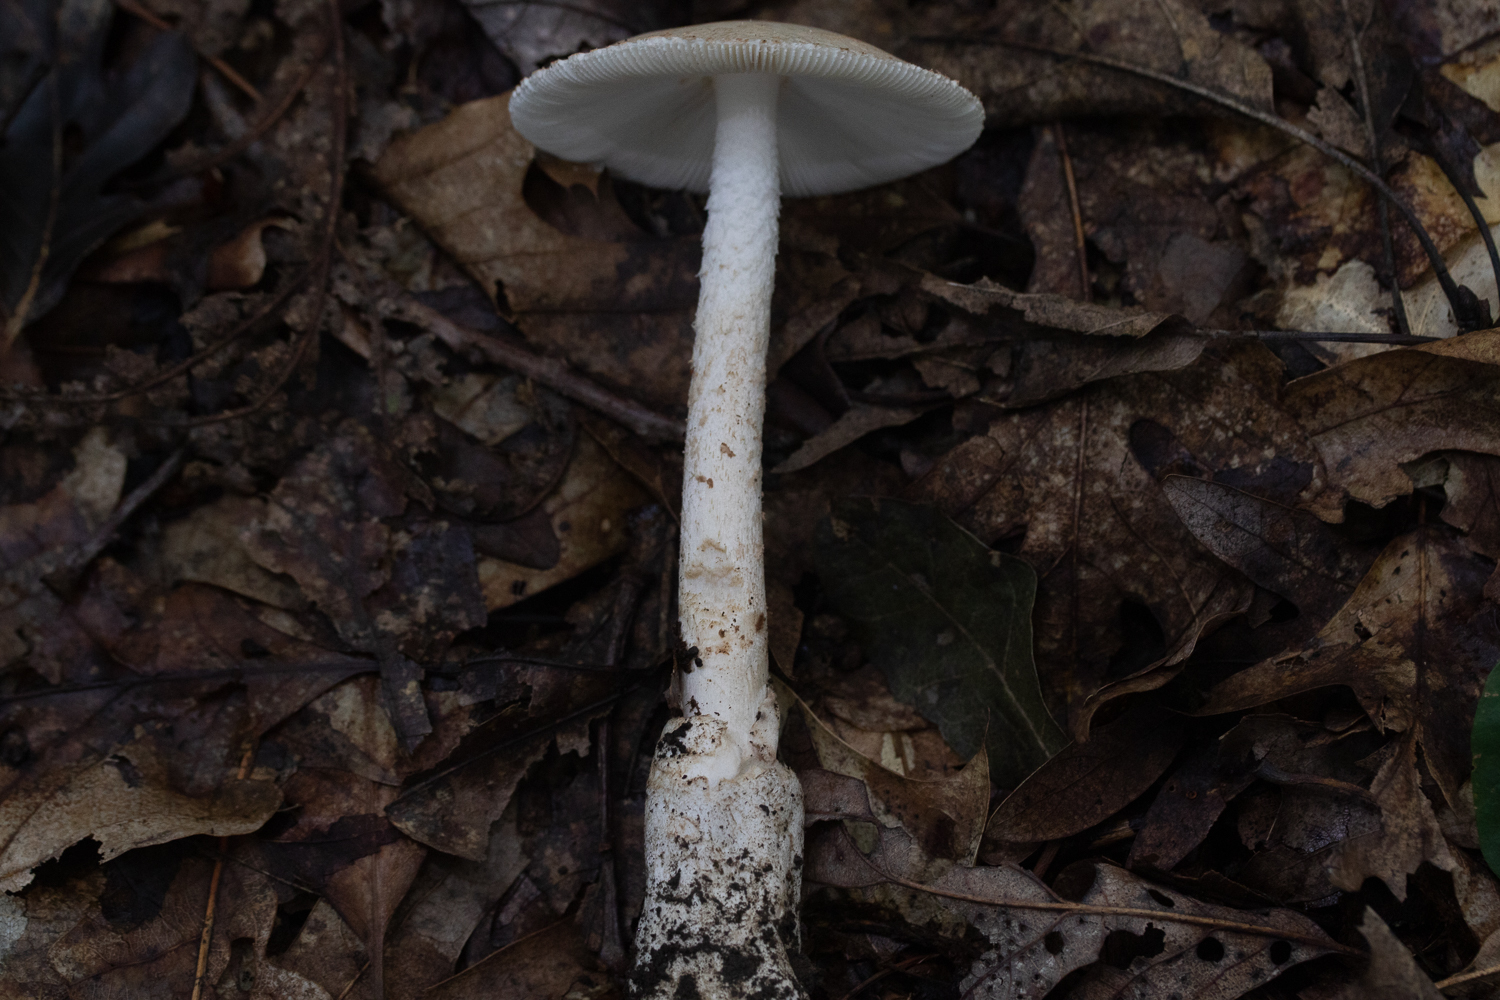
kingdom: Fungi
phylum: Basidiomycota
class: Agaricomycetes
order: Agaricales
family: Amanitaceae
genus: Amanita
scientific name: Amanita volvata
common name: American amidella
